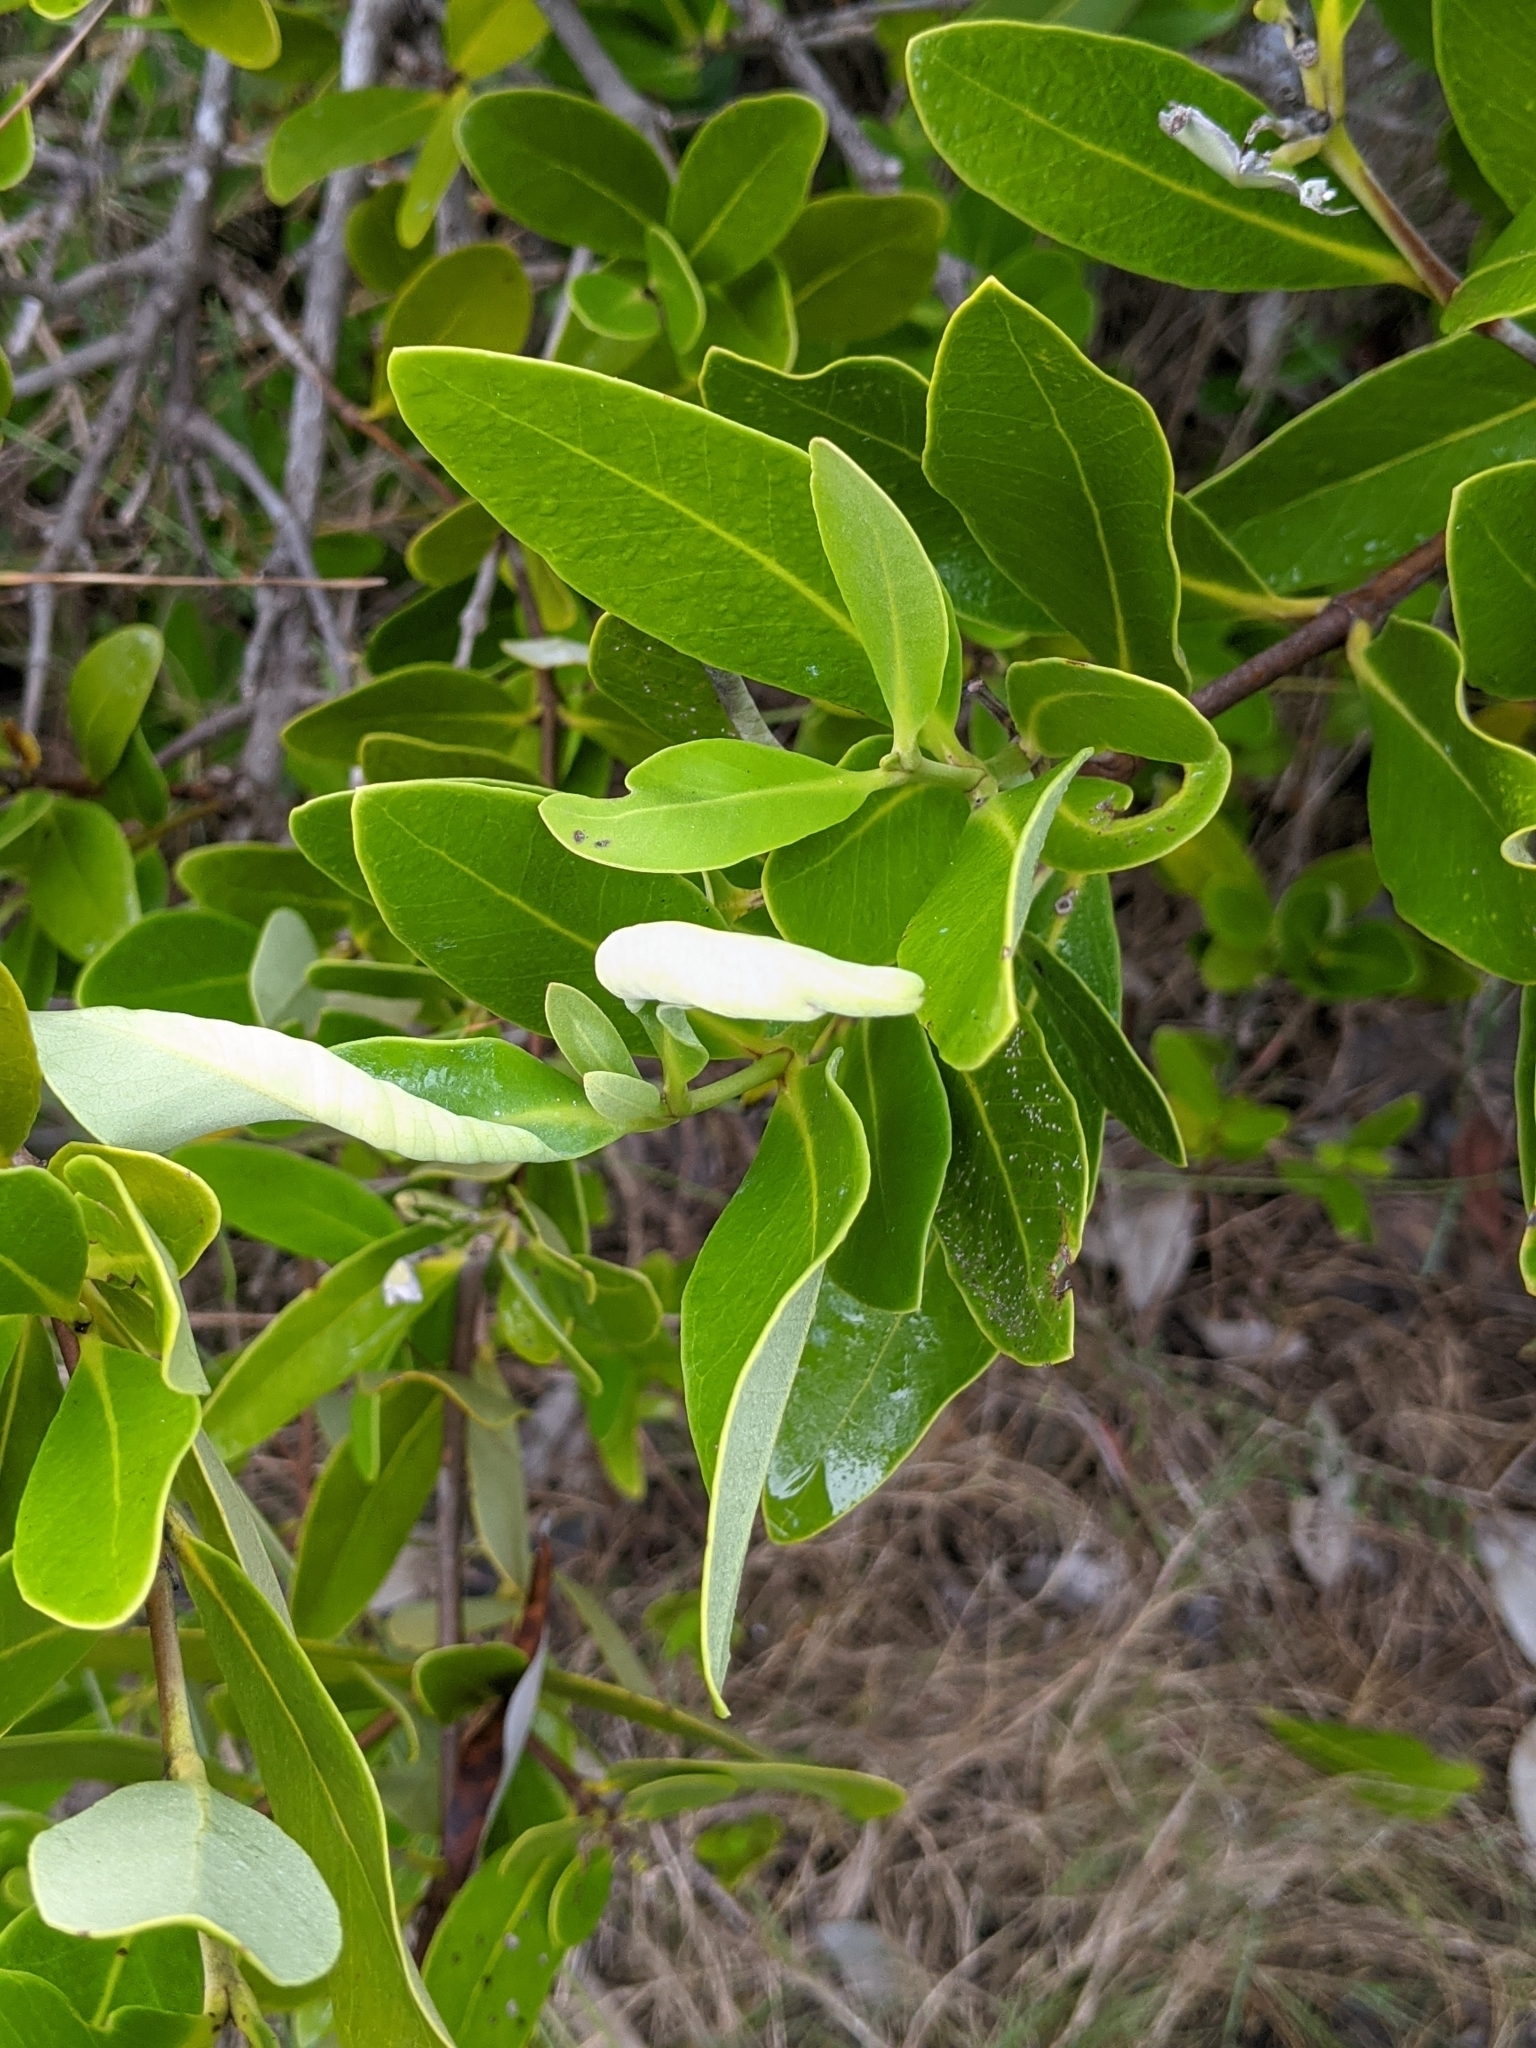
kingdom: Plantae
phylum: Tracheophyta
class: Magnoliopsida
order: Lamiales
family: Acanthaceae
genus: Avicennia
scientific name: Avicennia germinans
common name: Black mangrove
